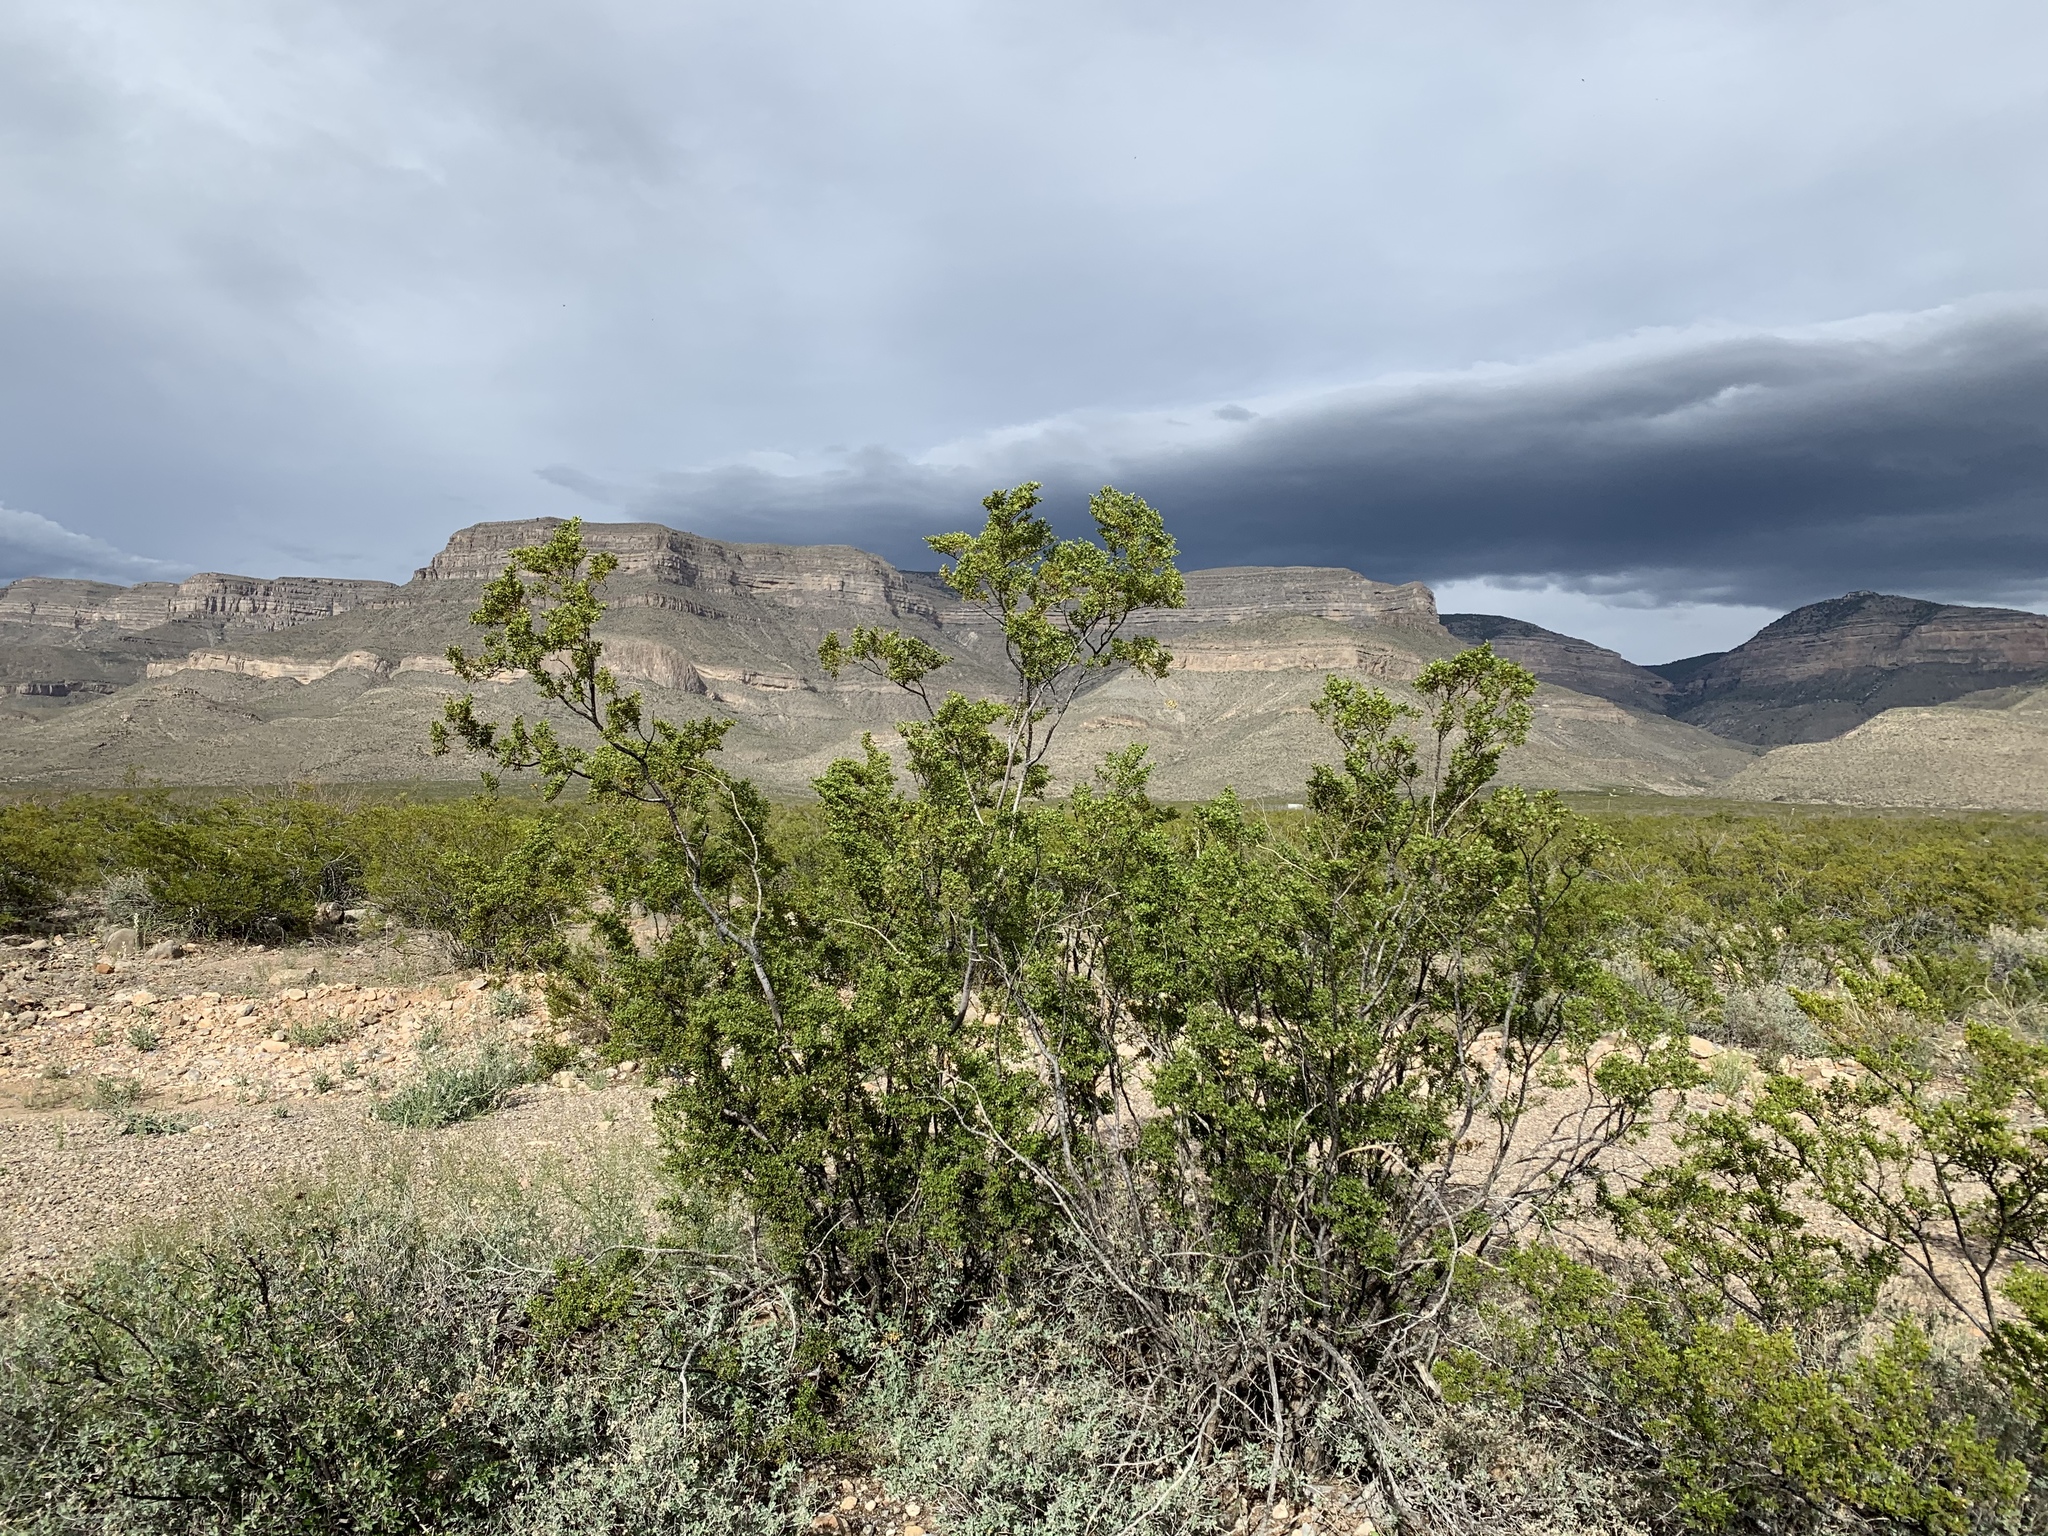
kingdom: Plantae
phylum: Tracheophyta
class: Magnoliopsida
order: Zygophyllales
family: Zygophyllaceae
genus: Larrea
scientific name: Larrea tridentata
